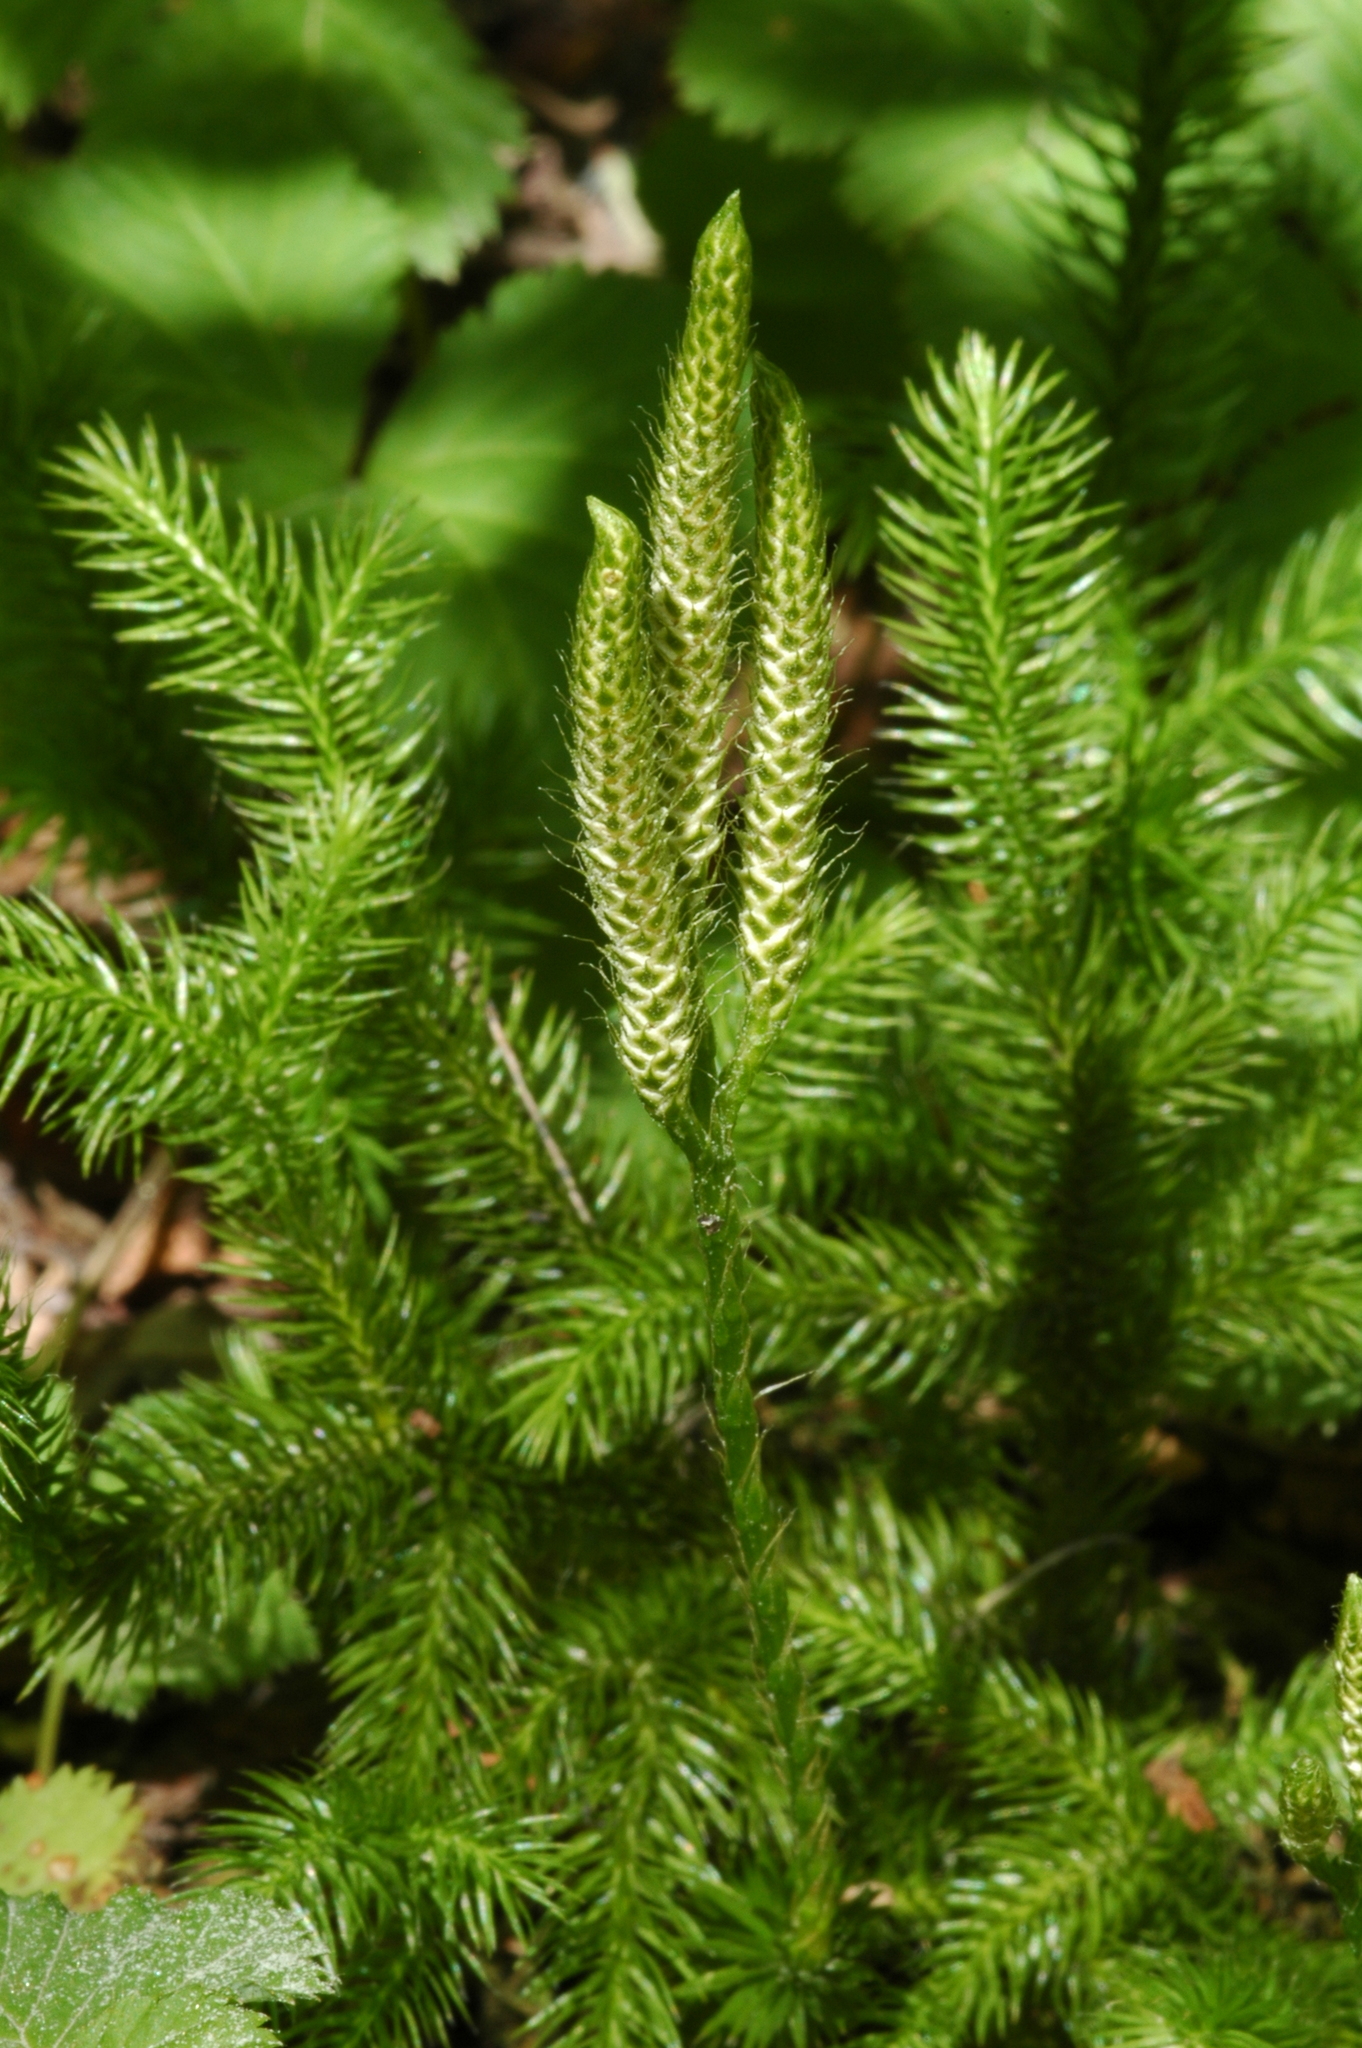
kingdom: Plantae
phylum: Tracheophyta
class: Lycopodiopsida
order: Lycopodiales
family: Lycopodiaceae
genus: Lycopodium
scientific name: Lycopodium clavatum
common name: Stag's-horn clubmoss
